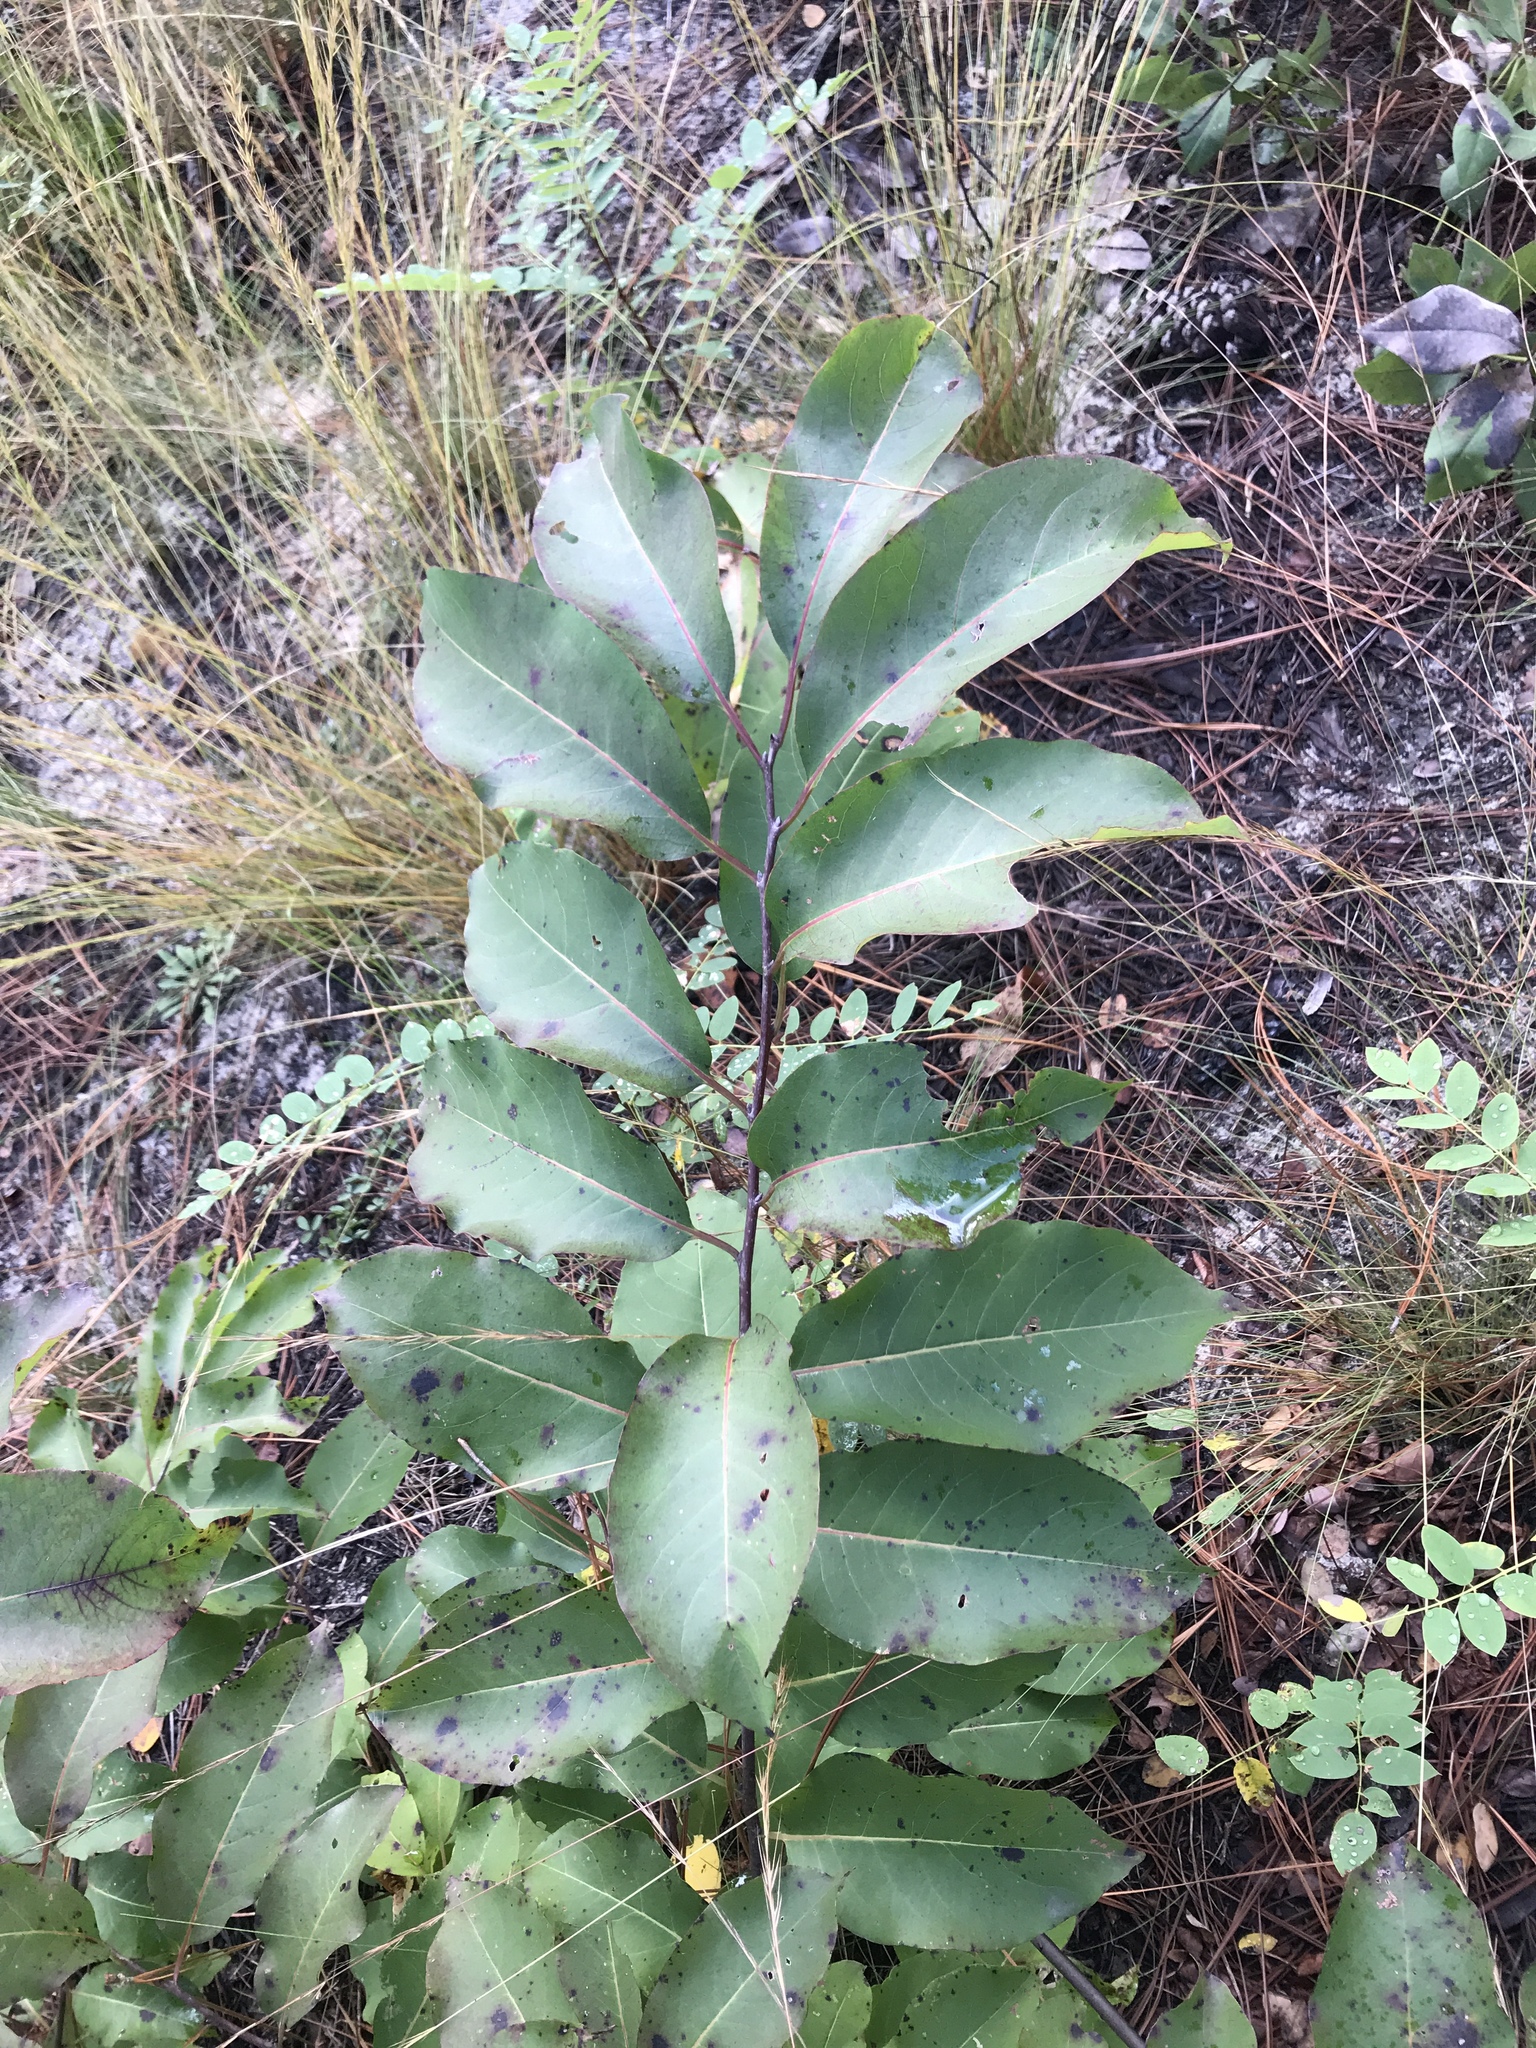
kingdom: Plantae
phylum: Tracheophyta
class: Magnoliopsida
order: Ericales
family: Ebenaceae
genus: Diospyros
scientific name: Diospyros virginiana
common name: Persimmon
